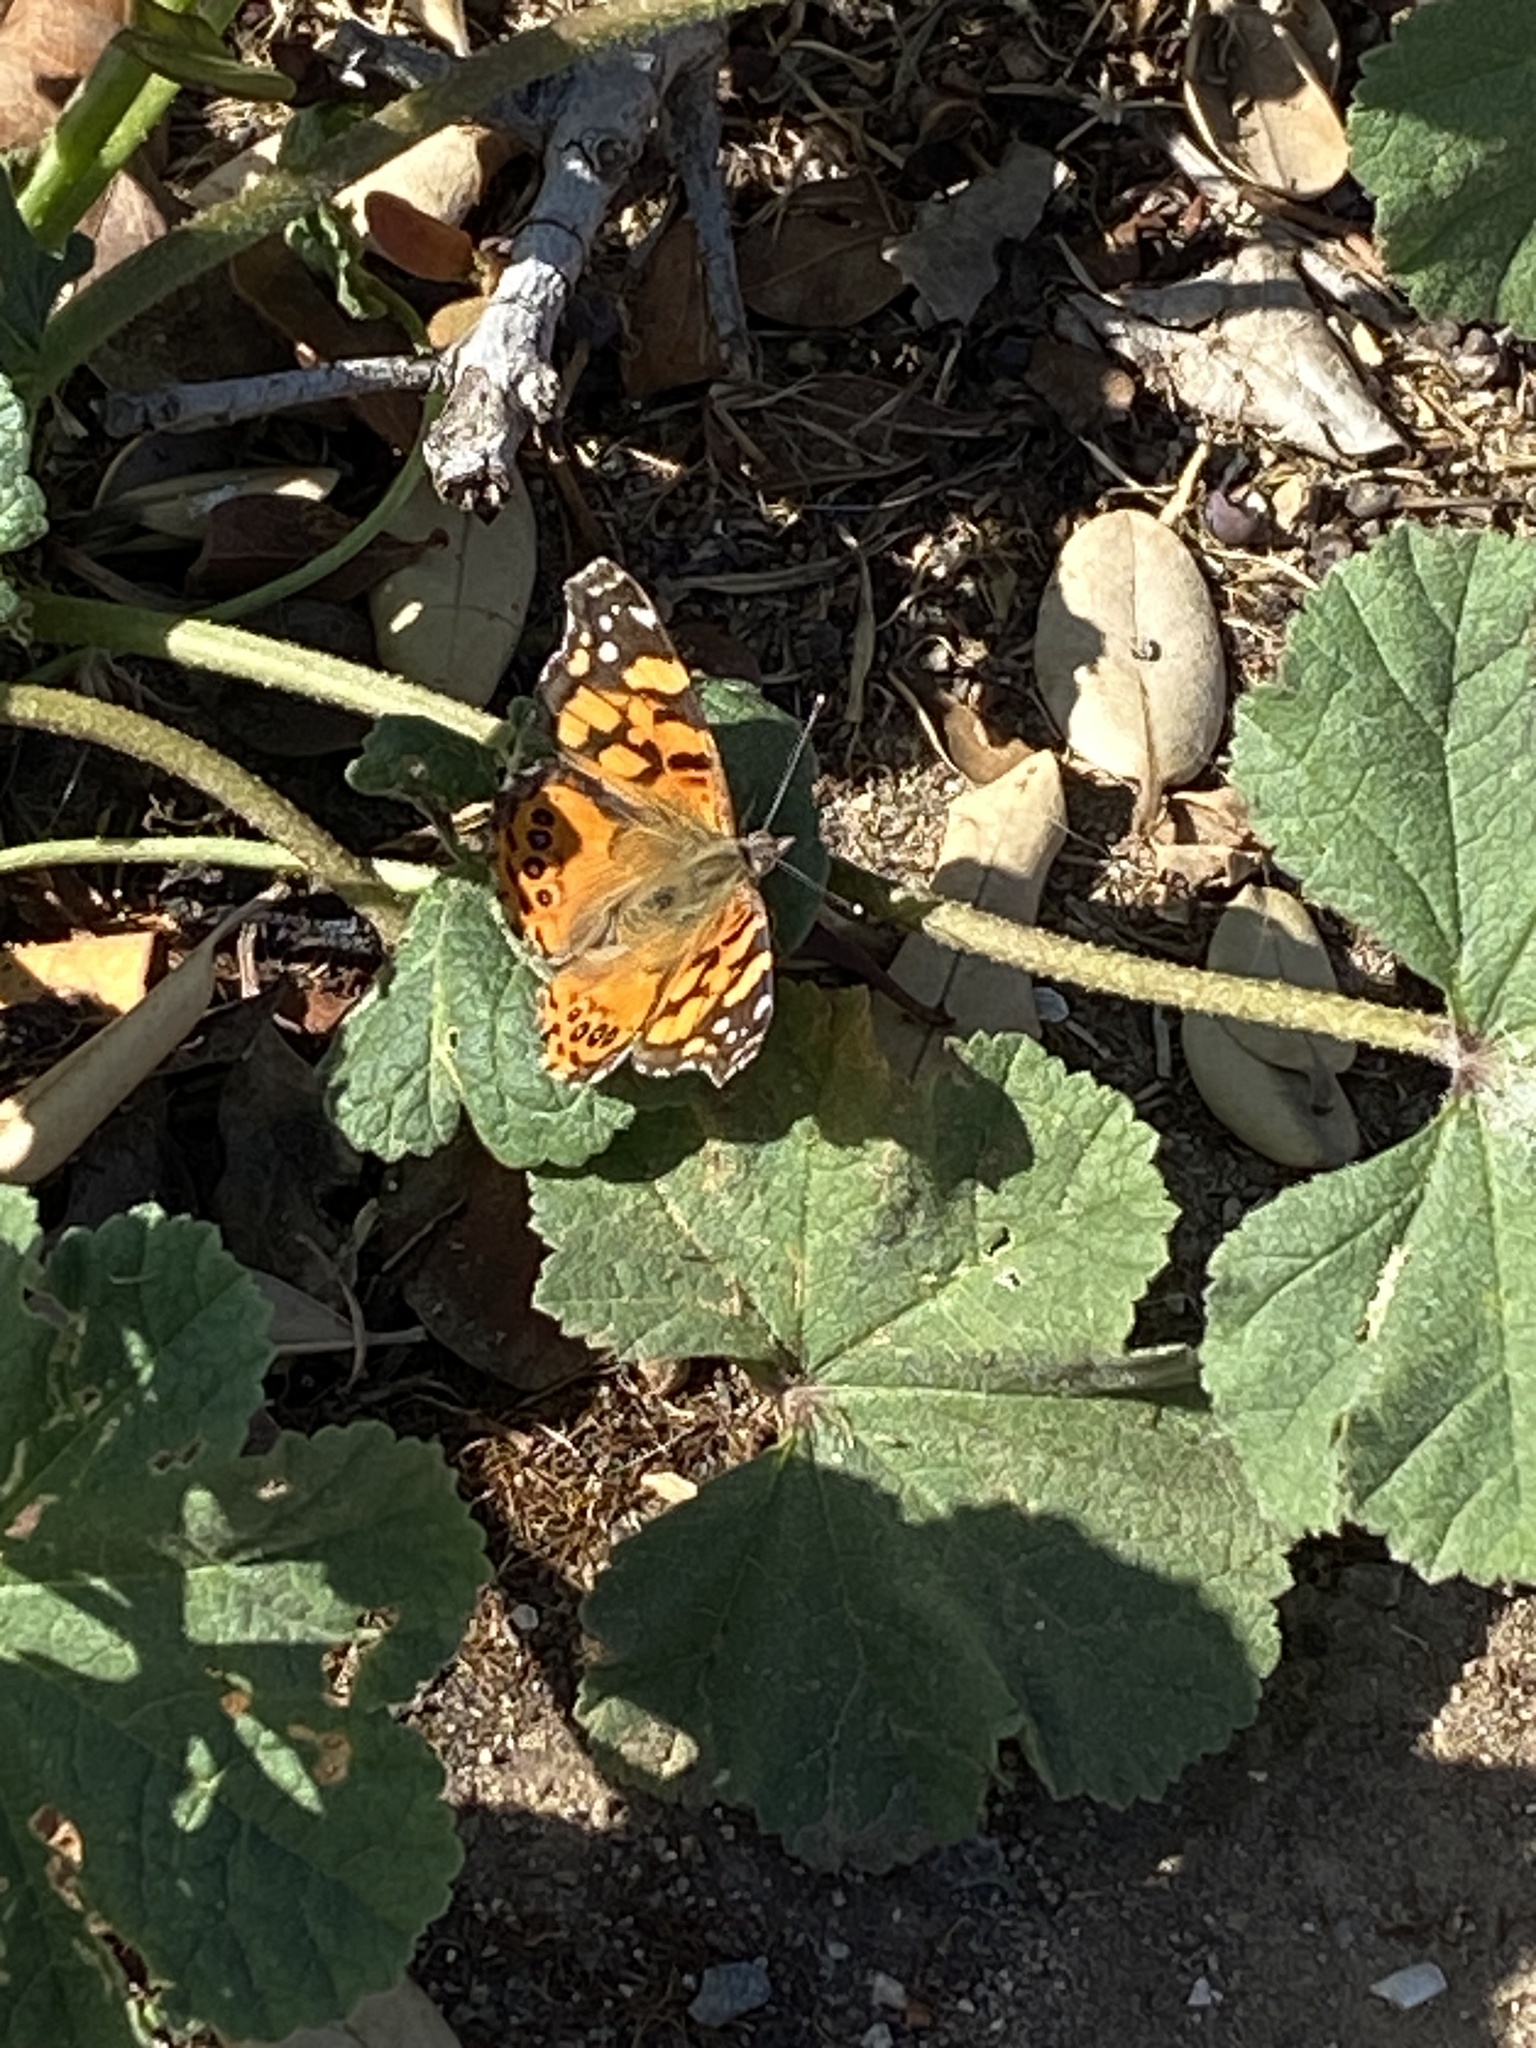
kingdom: Animalia
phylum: Arthropoda
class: Insecta
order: Lepidoptera
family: Nymphalidae
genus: Vanessa
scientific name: Vanessa annabella
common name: West coast lady
